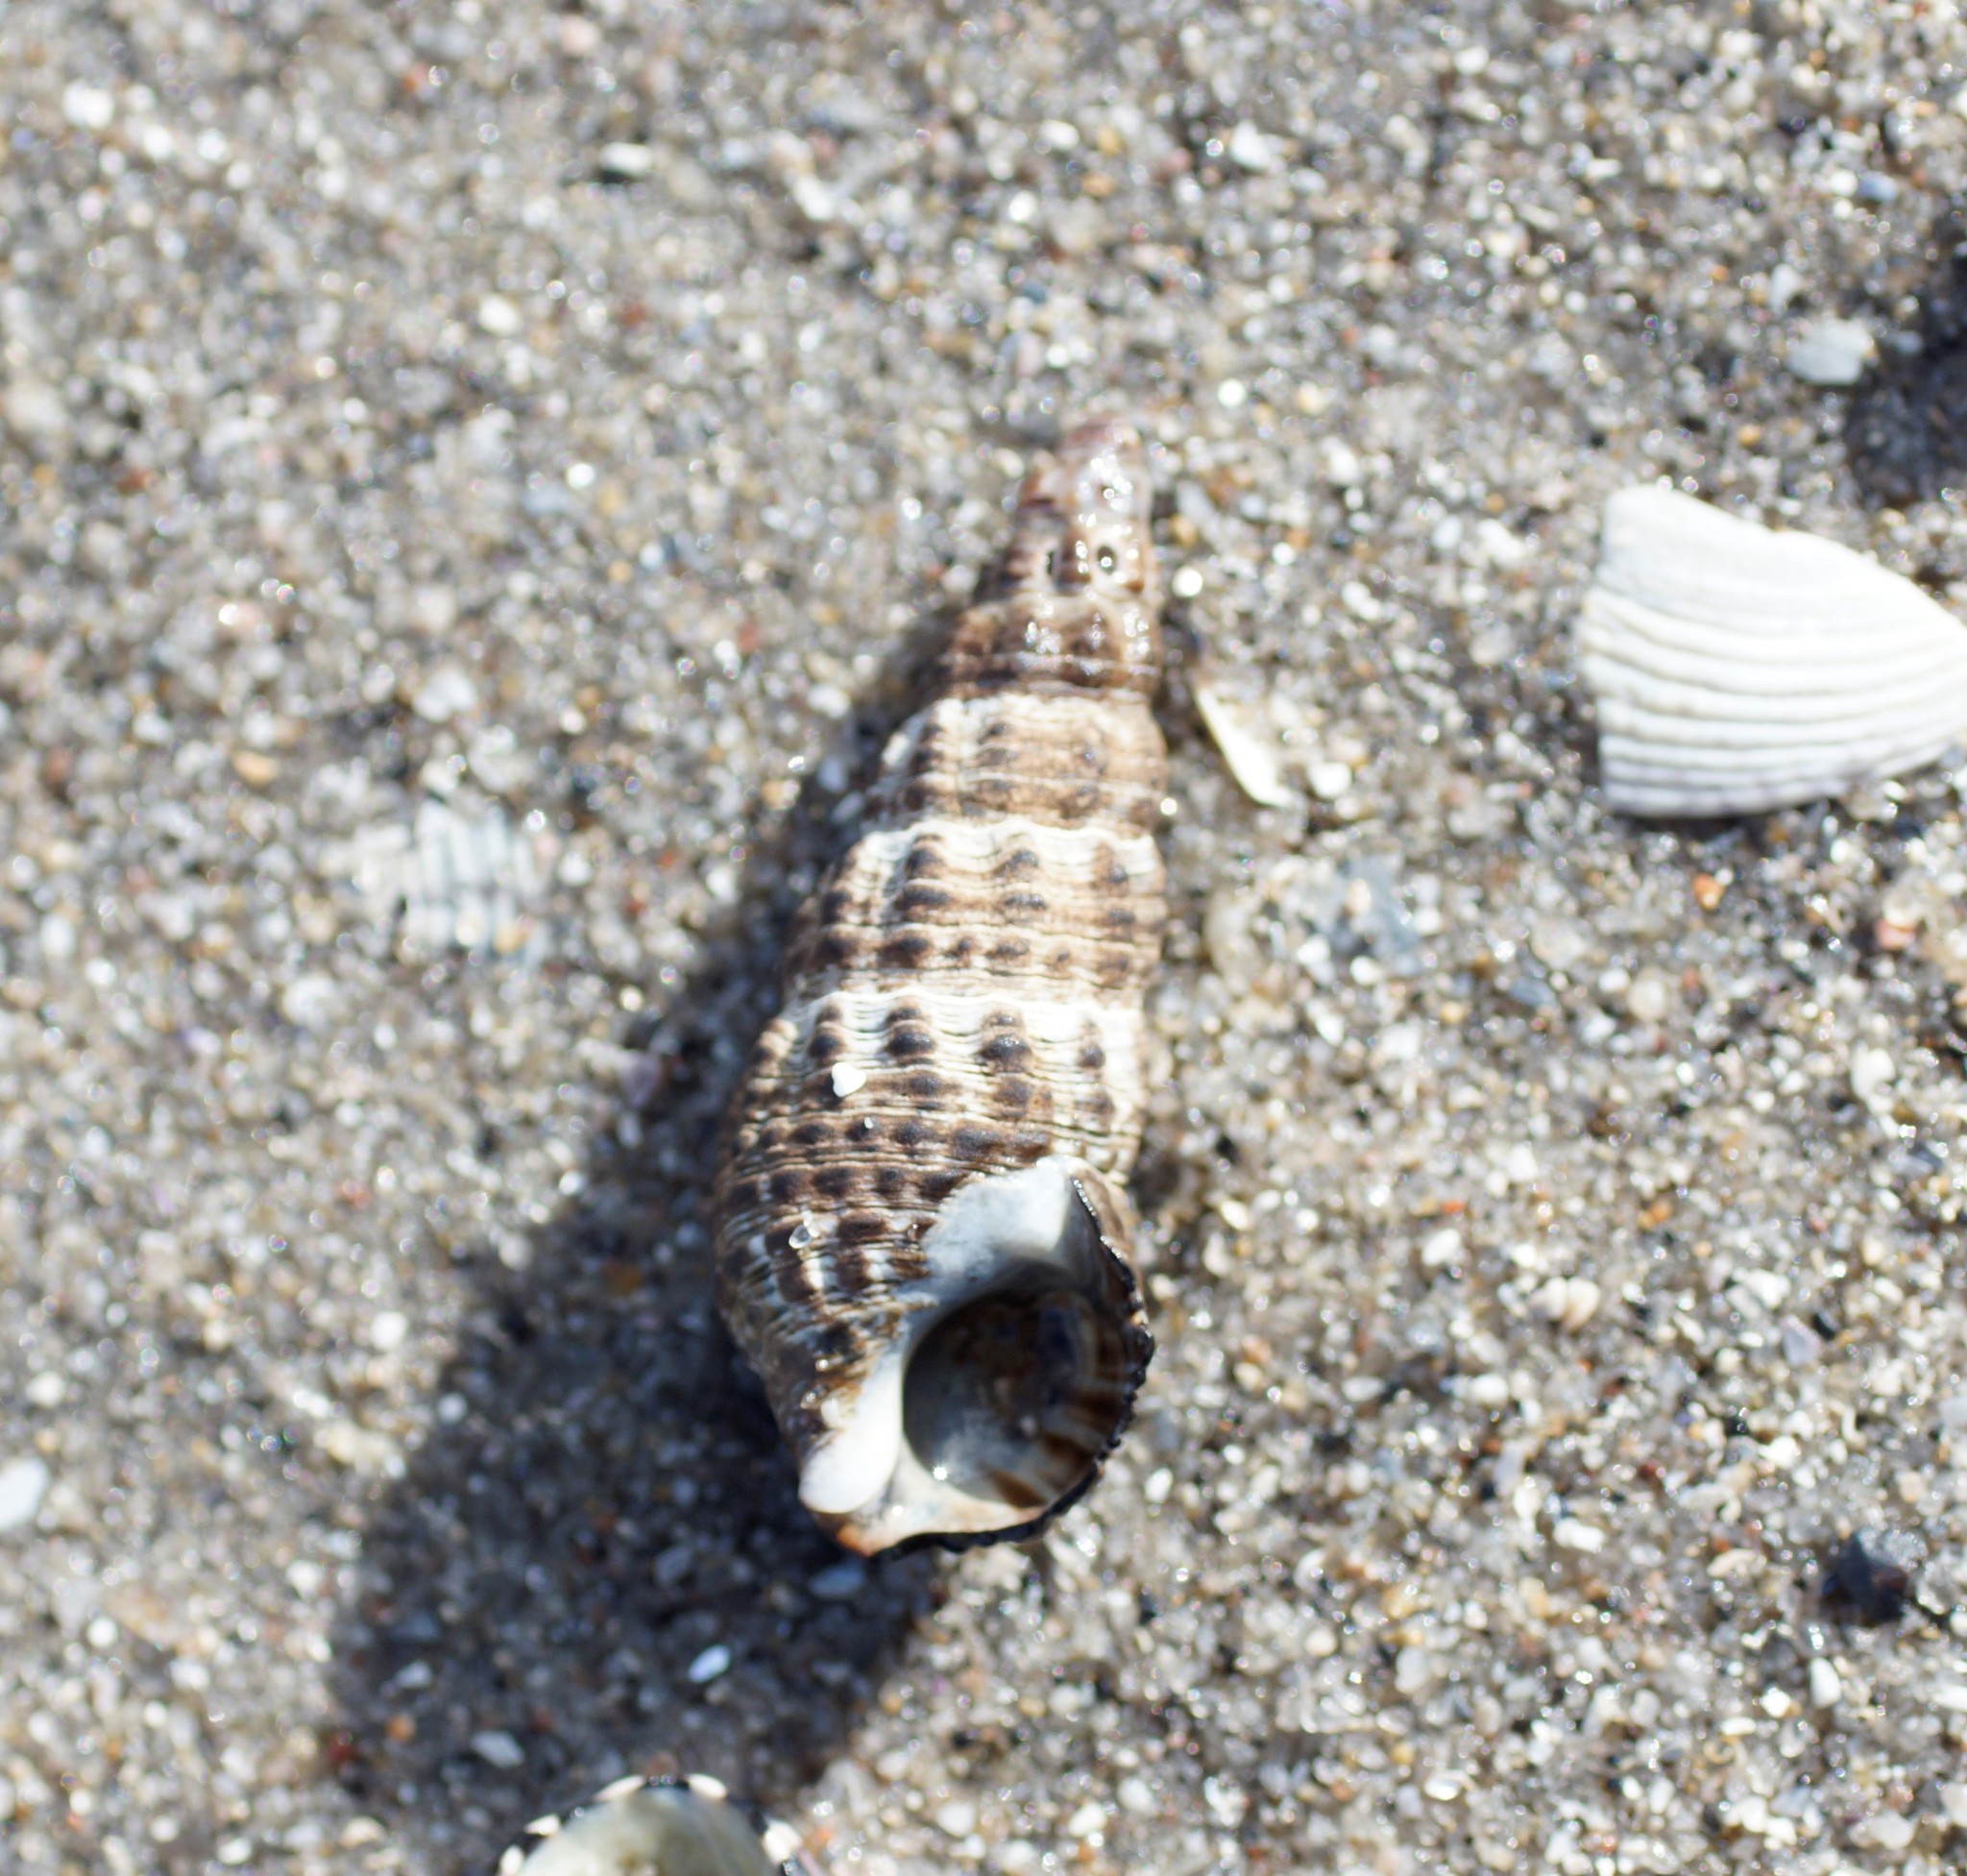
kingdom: Animalia
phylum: Mollusca
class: Gastropoda
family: Batillariidae
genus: Batillaria
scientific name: Batillaria australis
